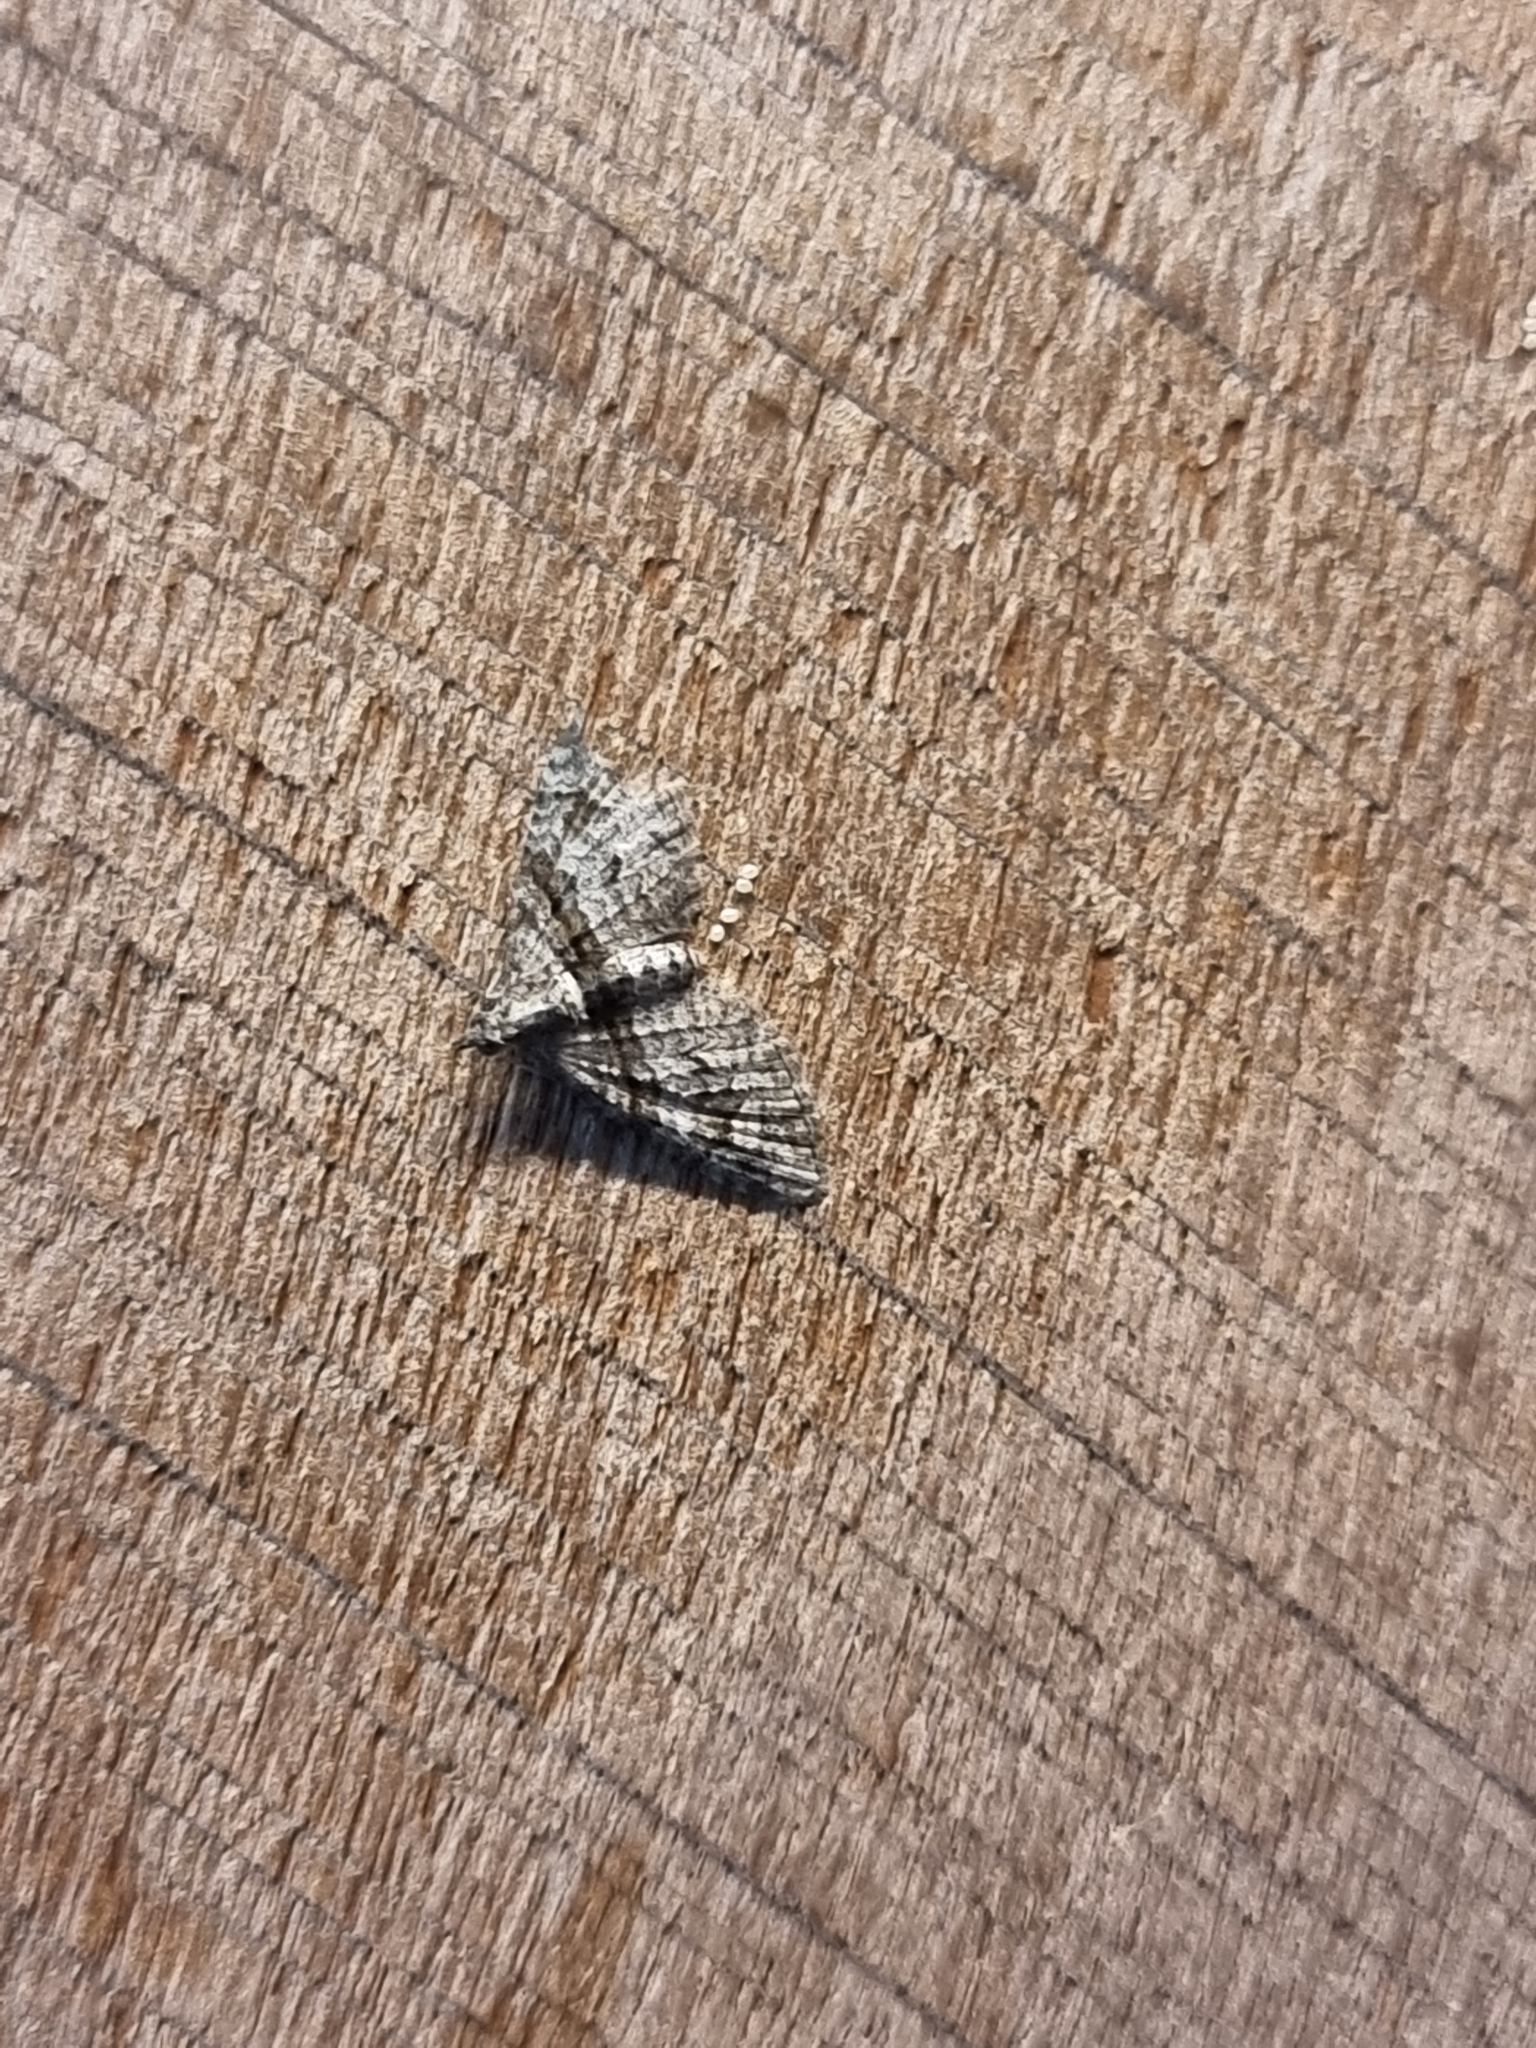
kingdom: Animalia
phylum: Arthropoda
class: Insecta
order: Lepidoptera
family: Geometridae
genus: Phrissogonus
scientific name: Phrissogonus laticostata
